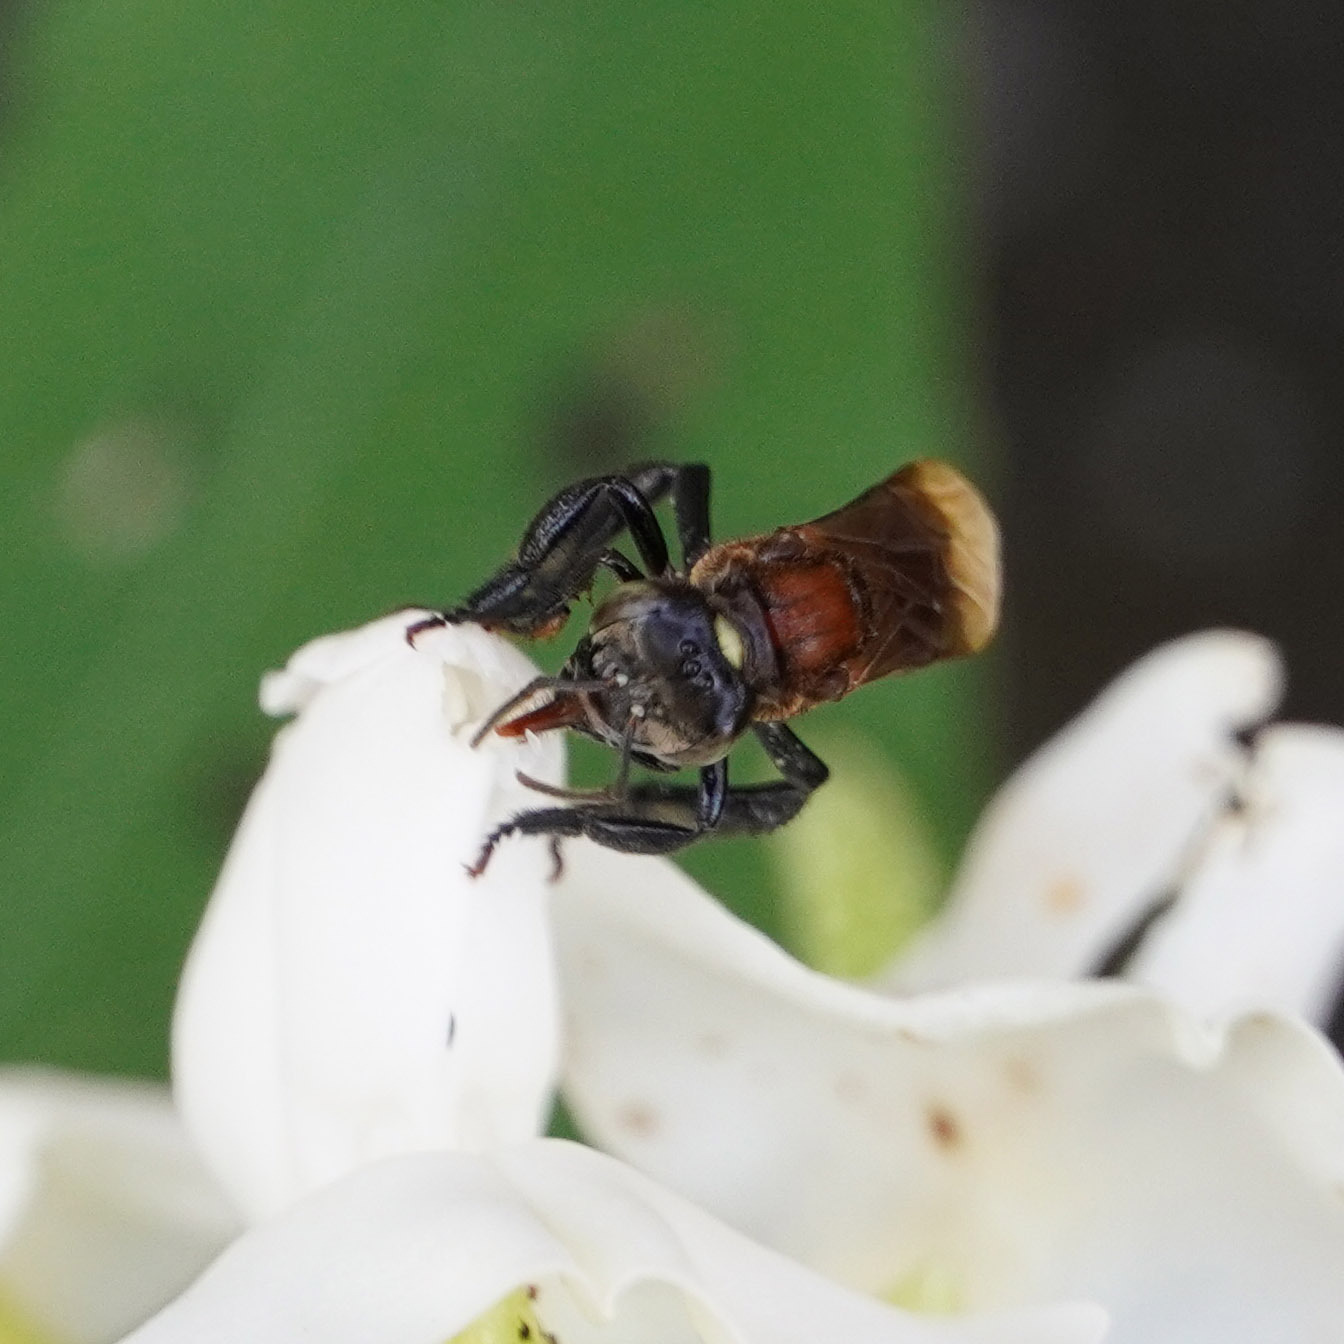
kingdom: Animalia
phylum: Arthropoda
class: Insecta
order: Hymenoptera
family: Apidae
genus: Geniotrigona
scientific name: Geniotrigona thoracica
